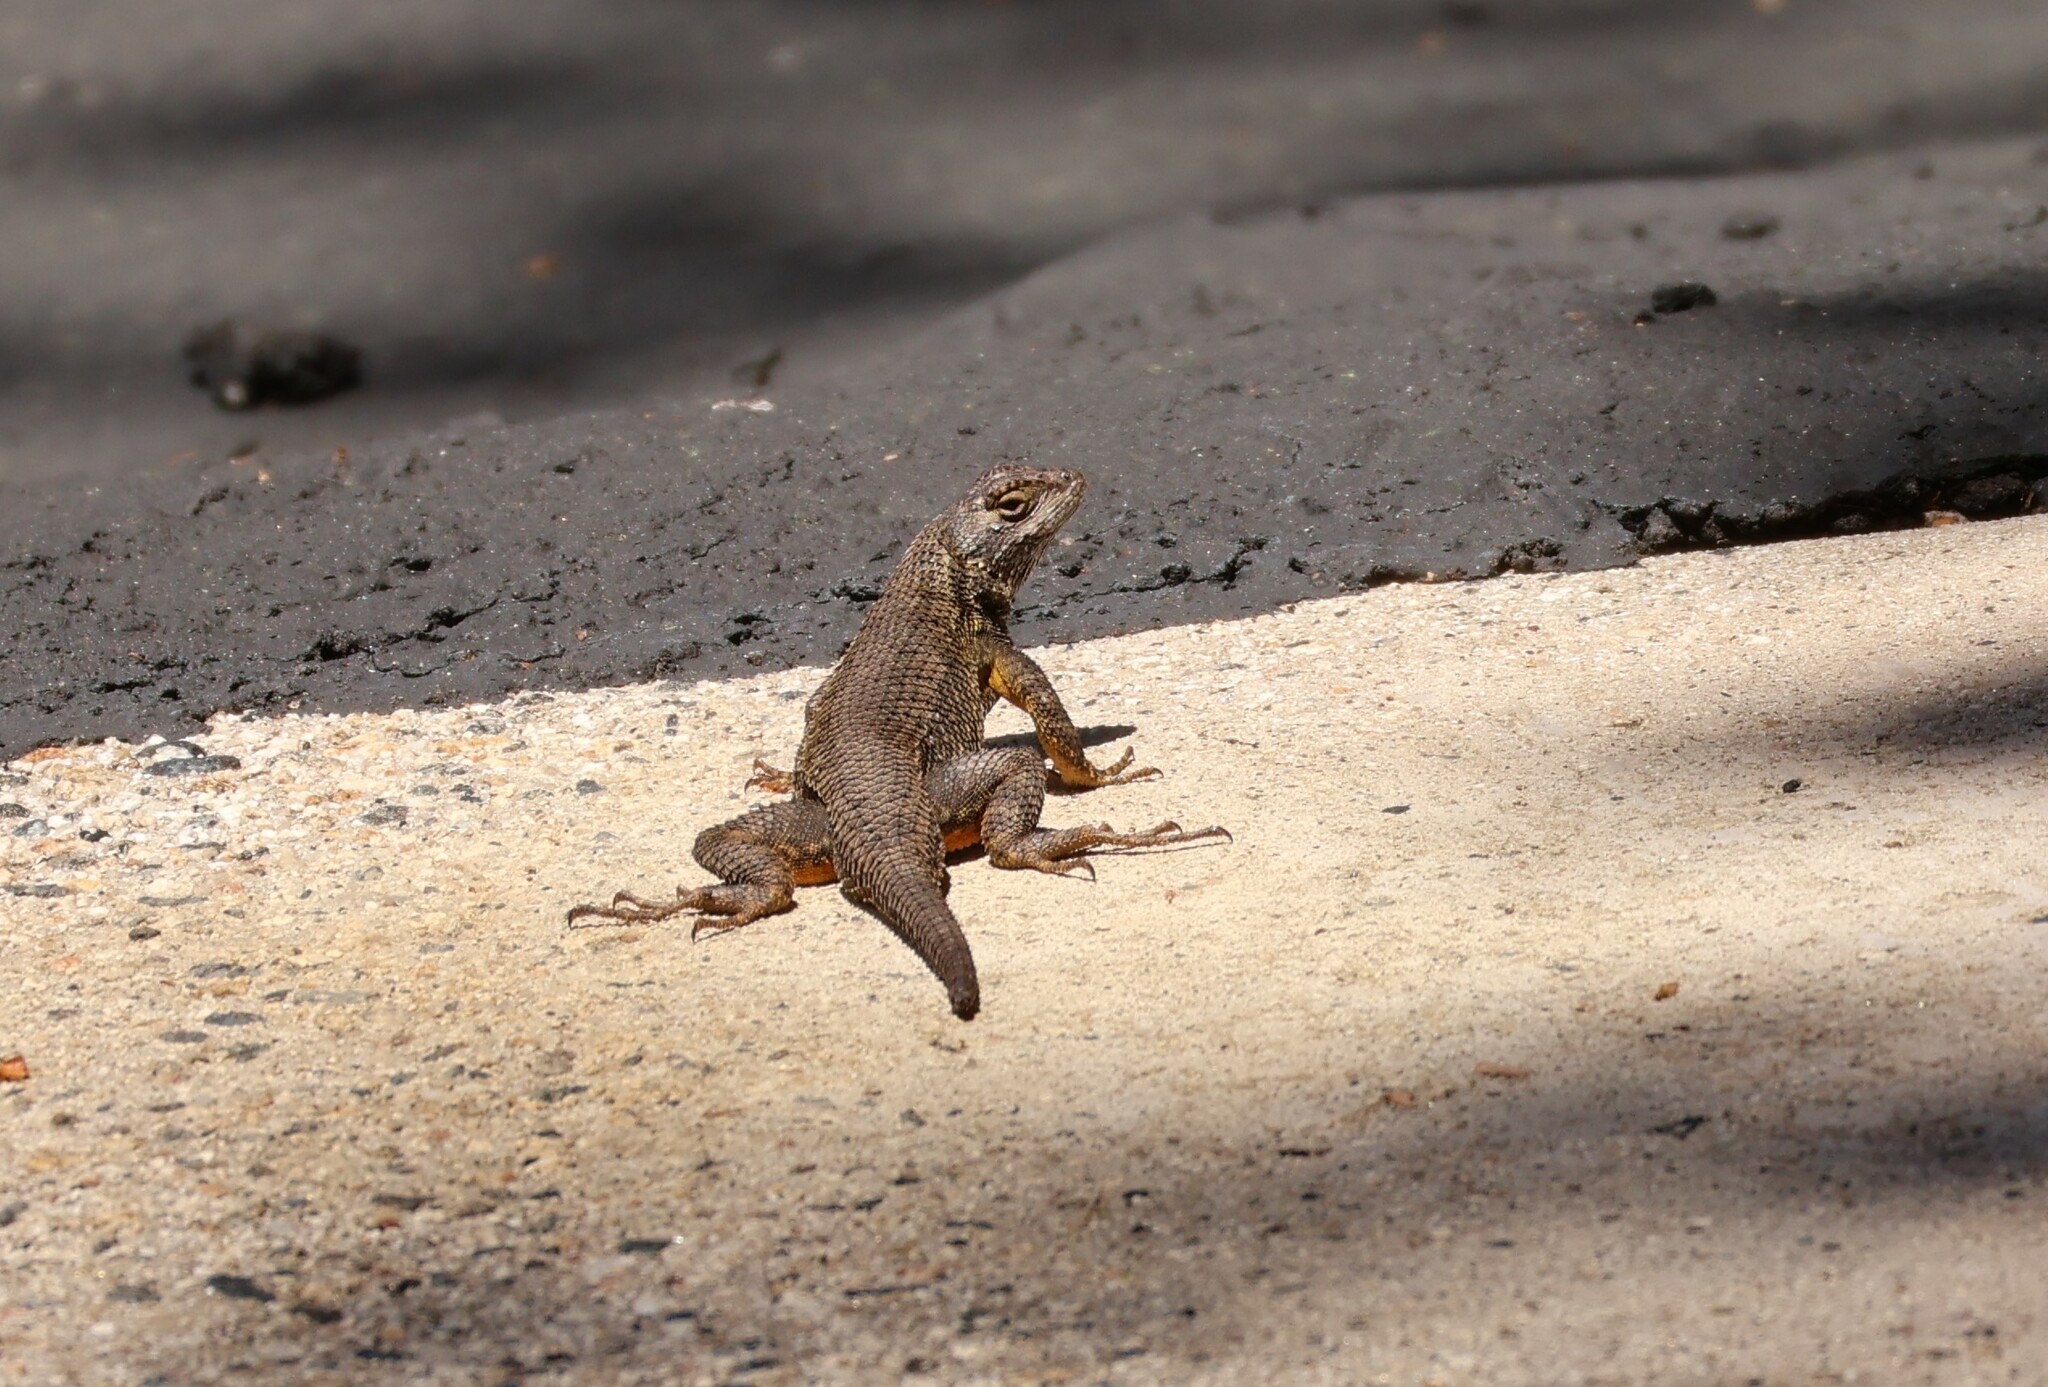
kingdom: Animalia
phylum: Chordata
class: Squamata
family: Phrynosomatidae
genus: Sceloporus
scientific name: Sceloporus occidentalis
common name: Western fence lizard
